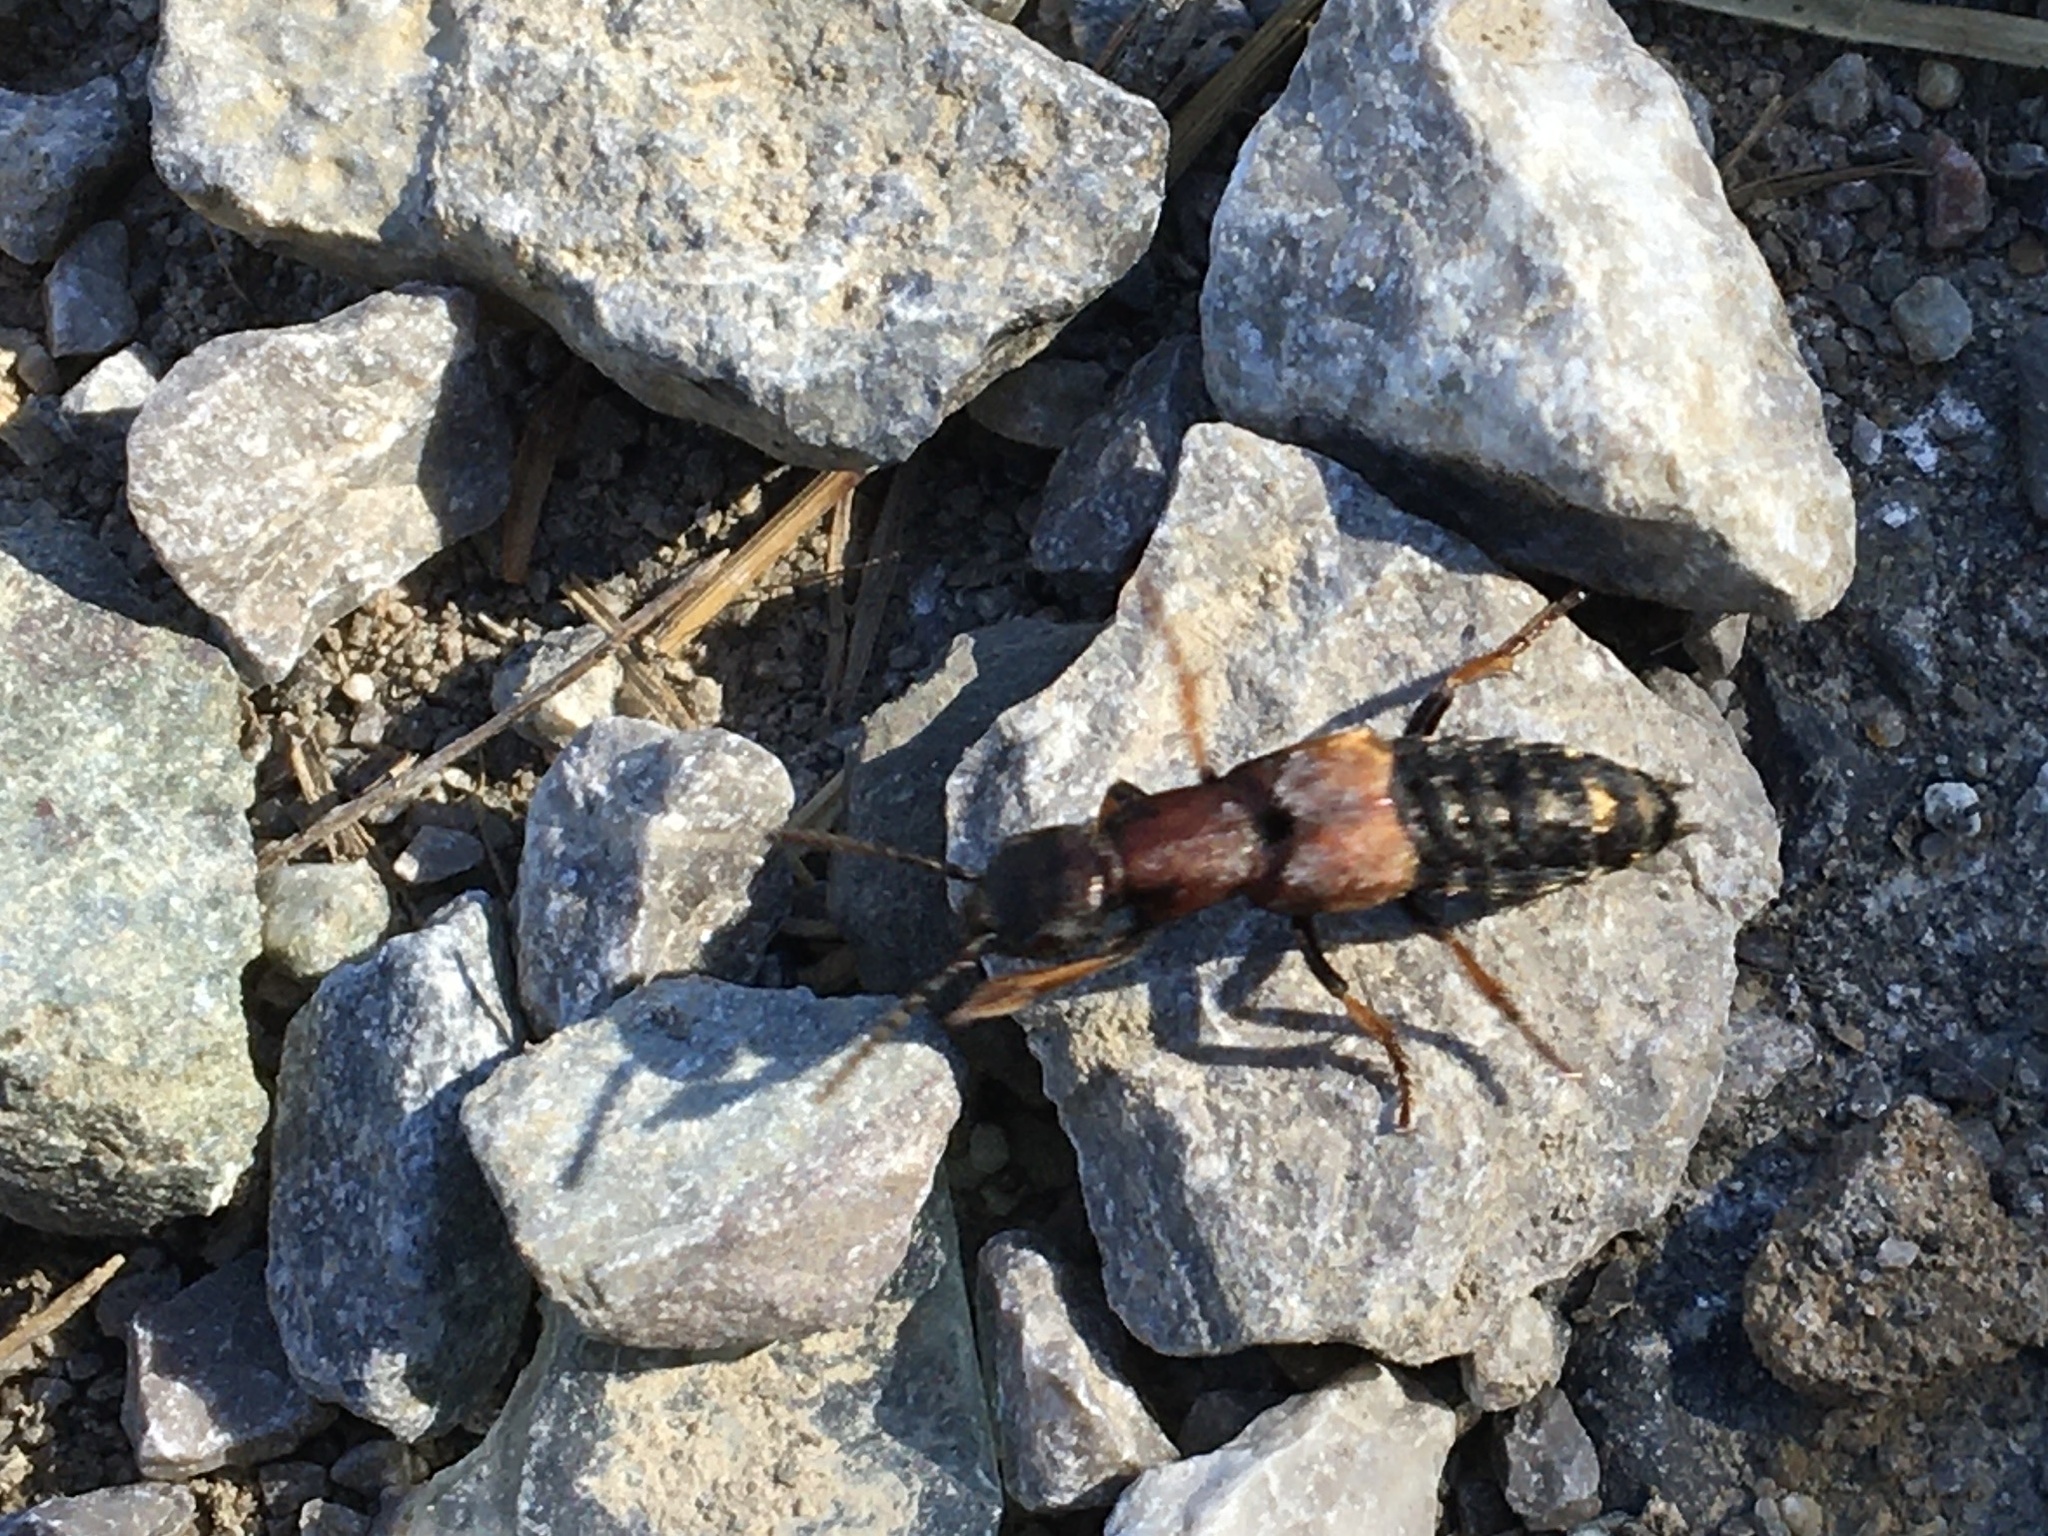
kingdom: Animalia
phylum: Arthropoda
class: Insecta
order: Coleoptera
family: Staphylinidae
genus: Dinothenarus
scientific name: Dinothenarus fossor
